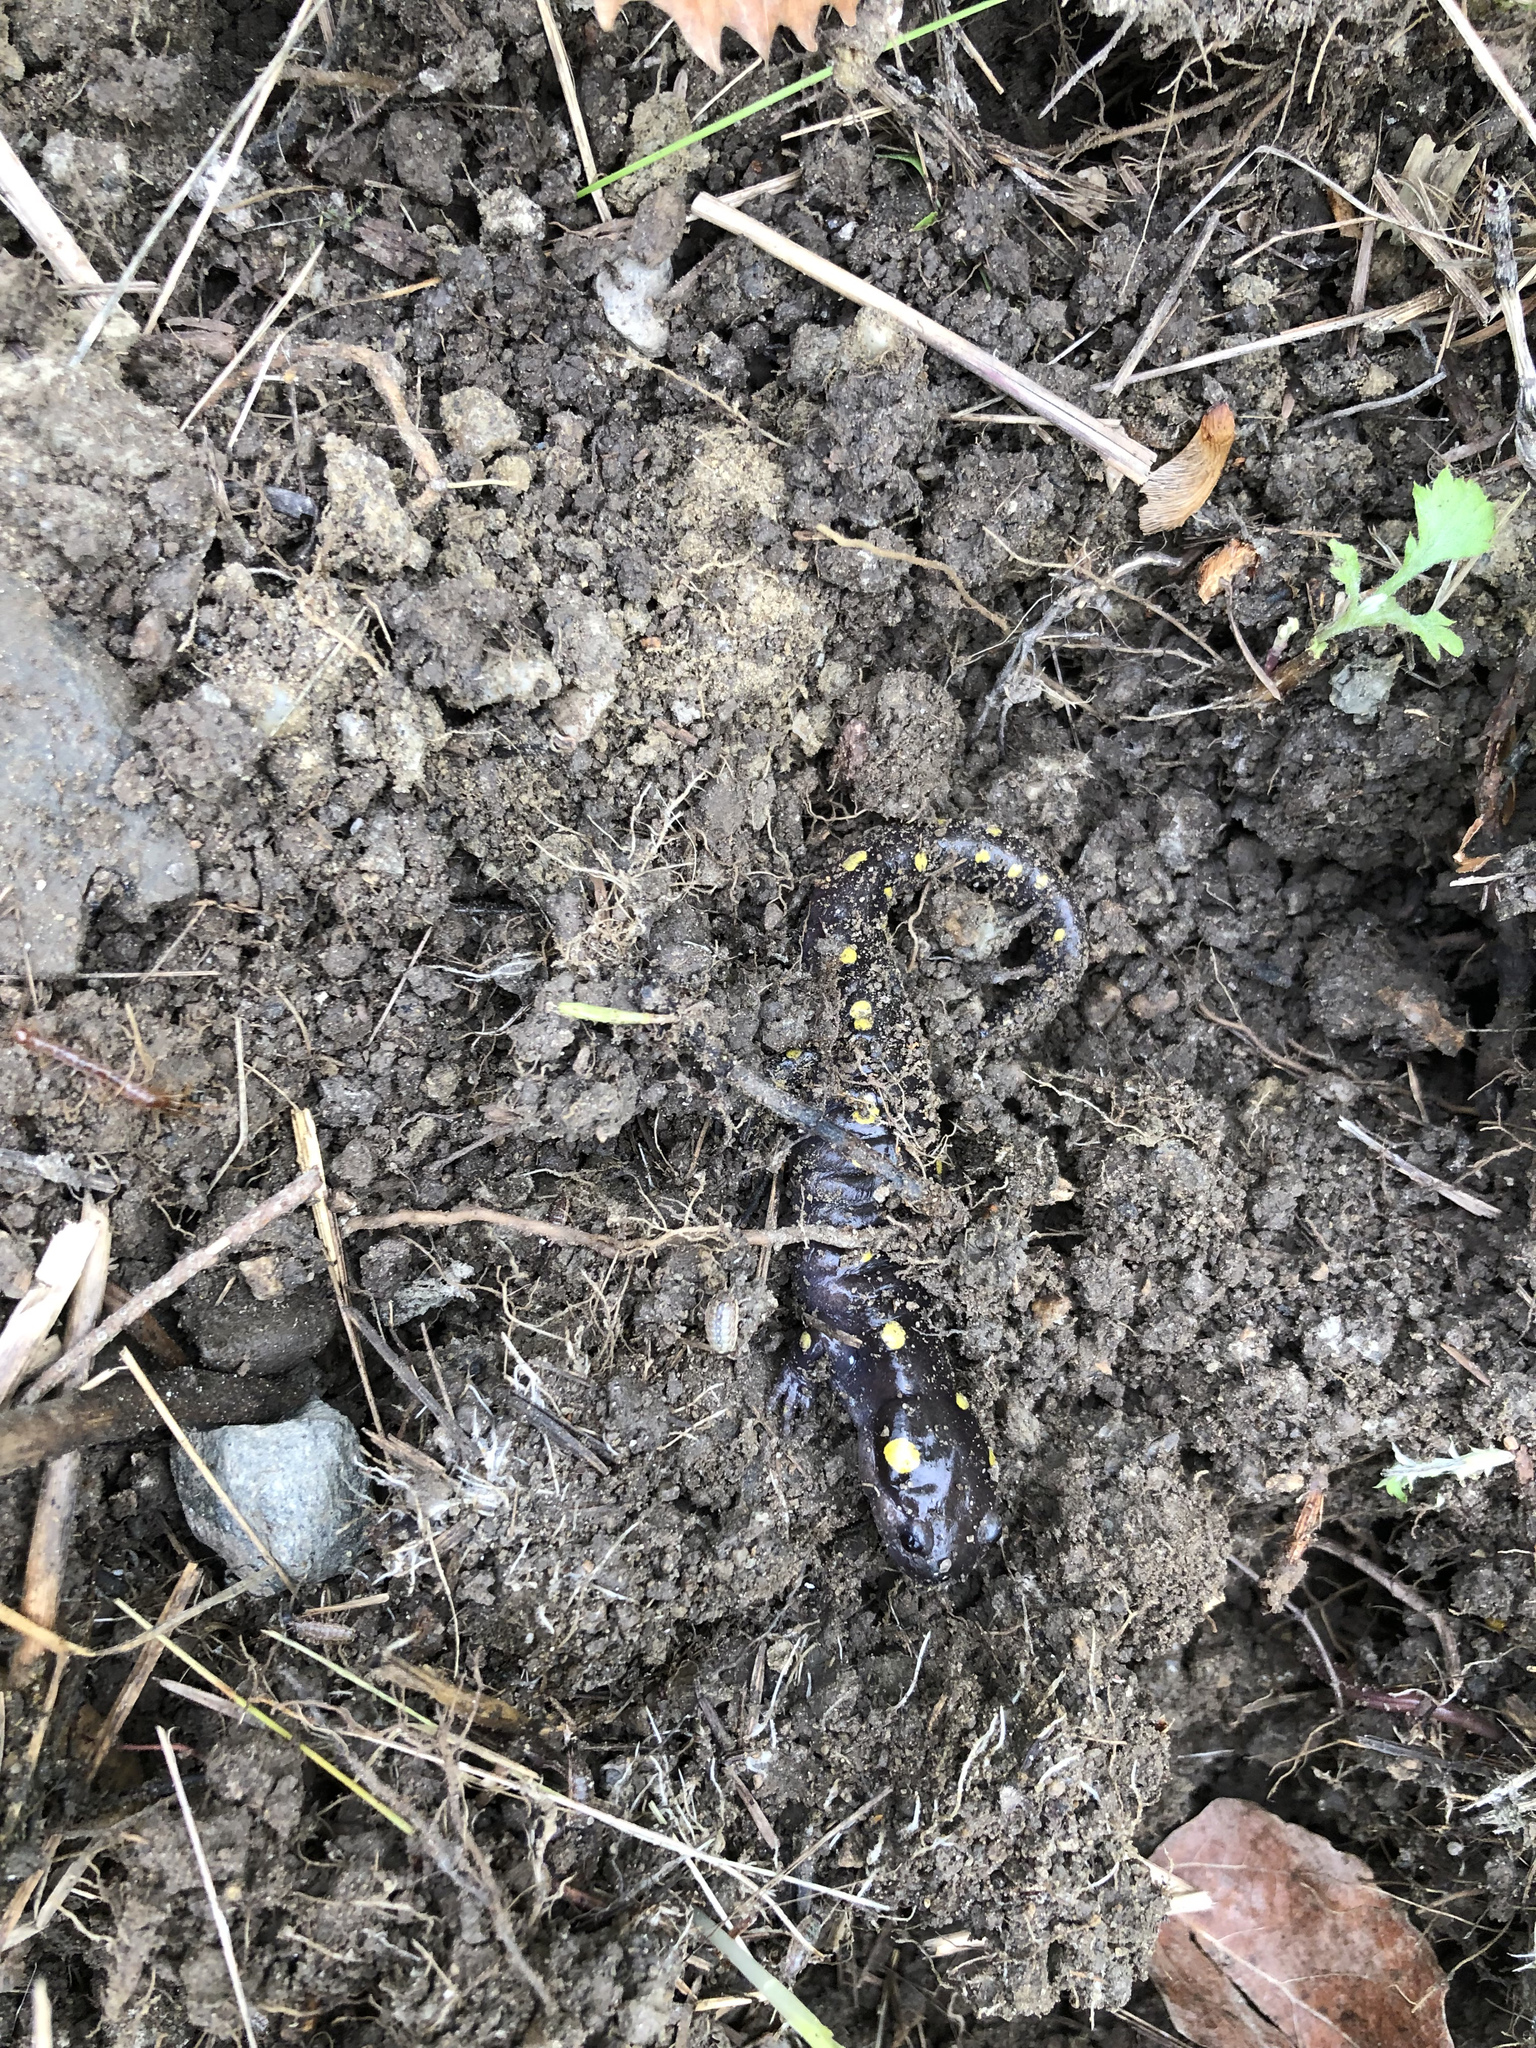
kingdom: Animalia
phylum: Chordata
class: Amphibia
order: Caudata
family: Ambystomatidae
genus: Ambystoma
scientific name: Ambystoma maculatum
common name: Spotted salamander
